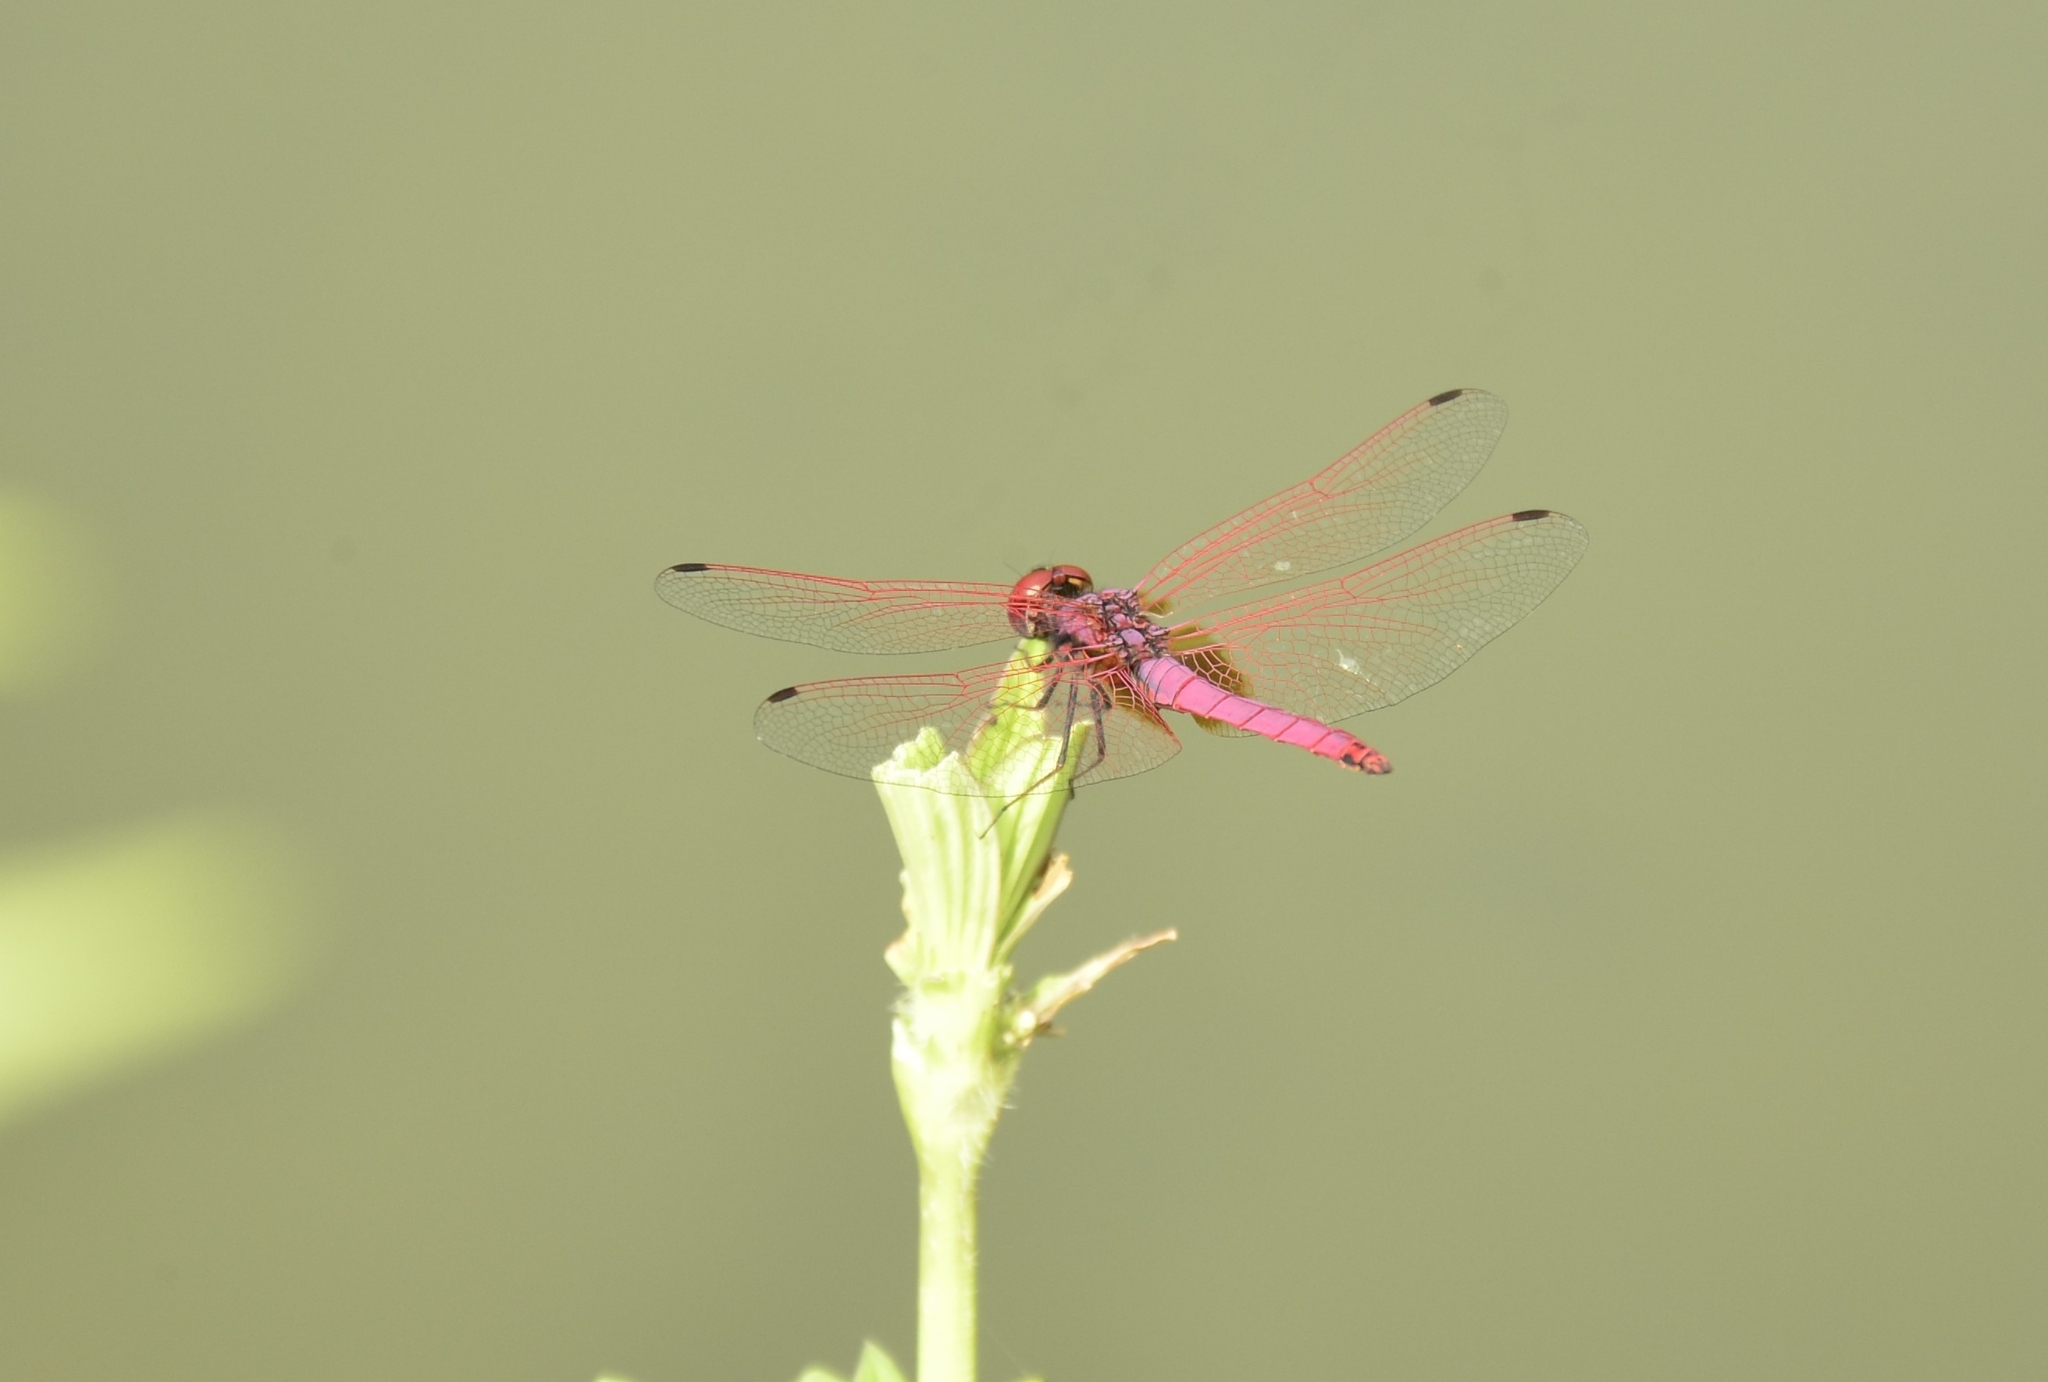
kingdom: Animalia
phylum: Arthropoda
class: Insecta
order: Odonata
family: Libellulidae
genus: Trithemis
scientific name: Trithemis aurora
